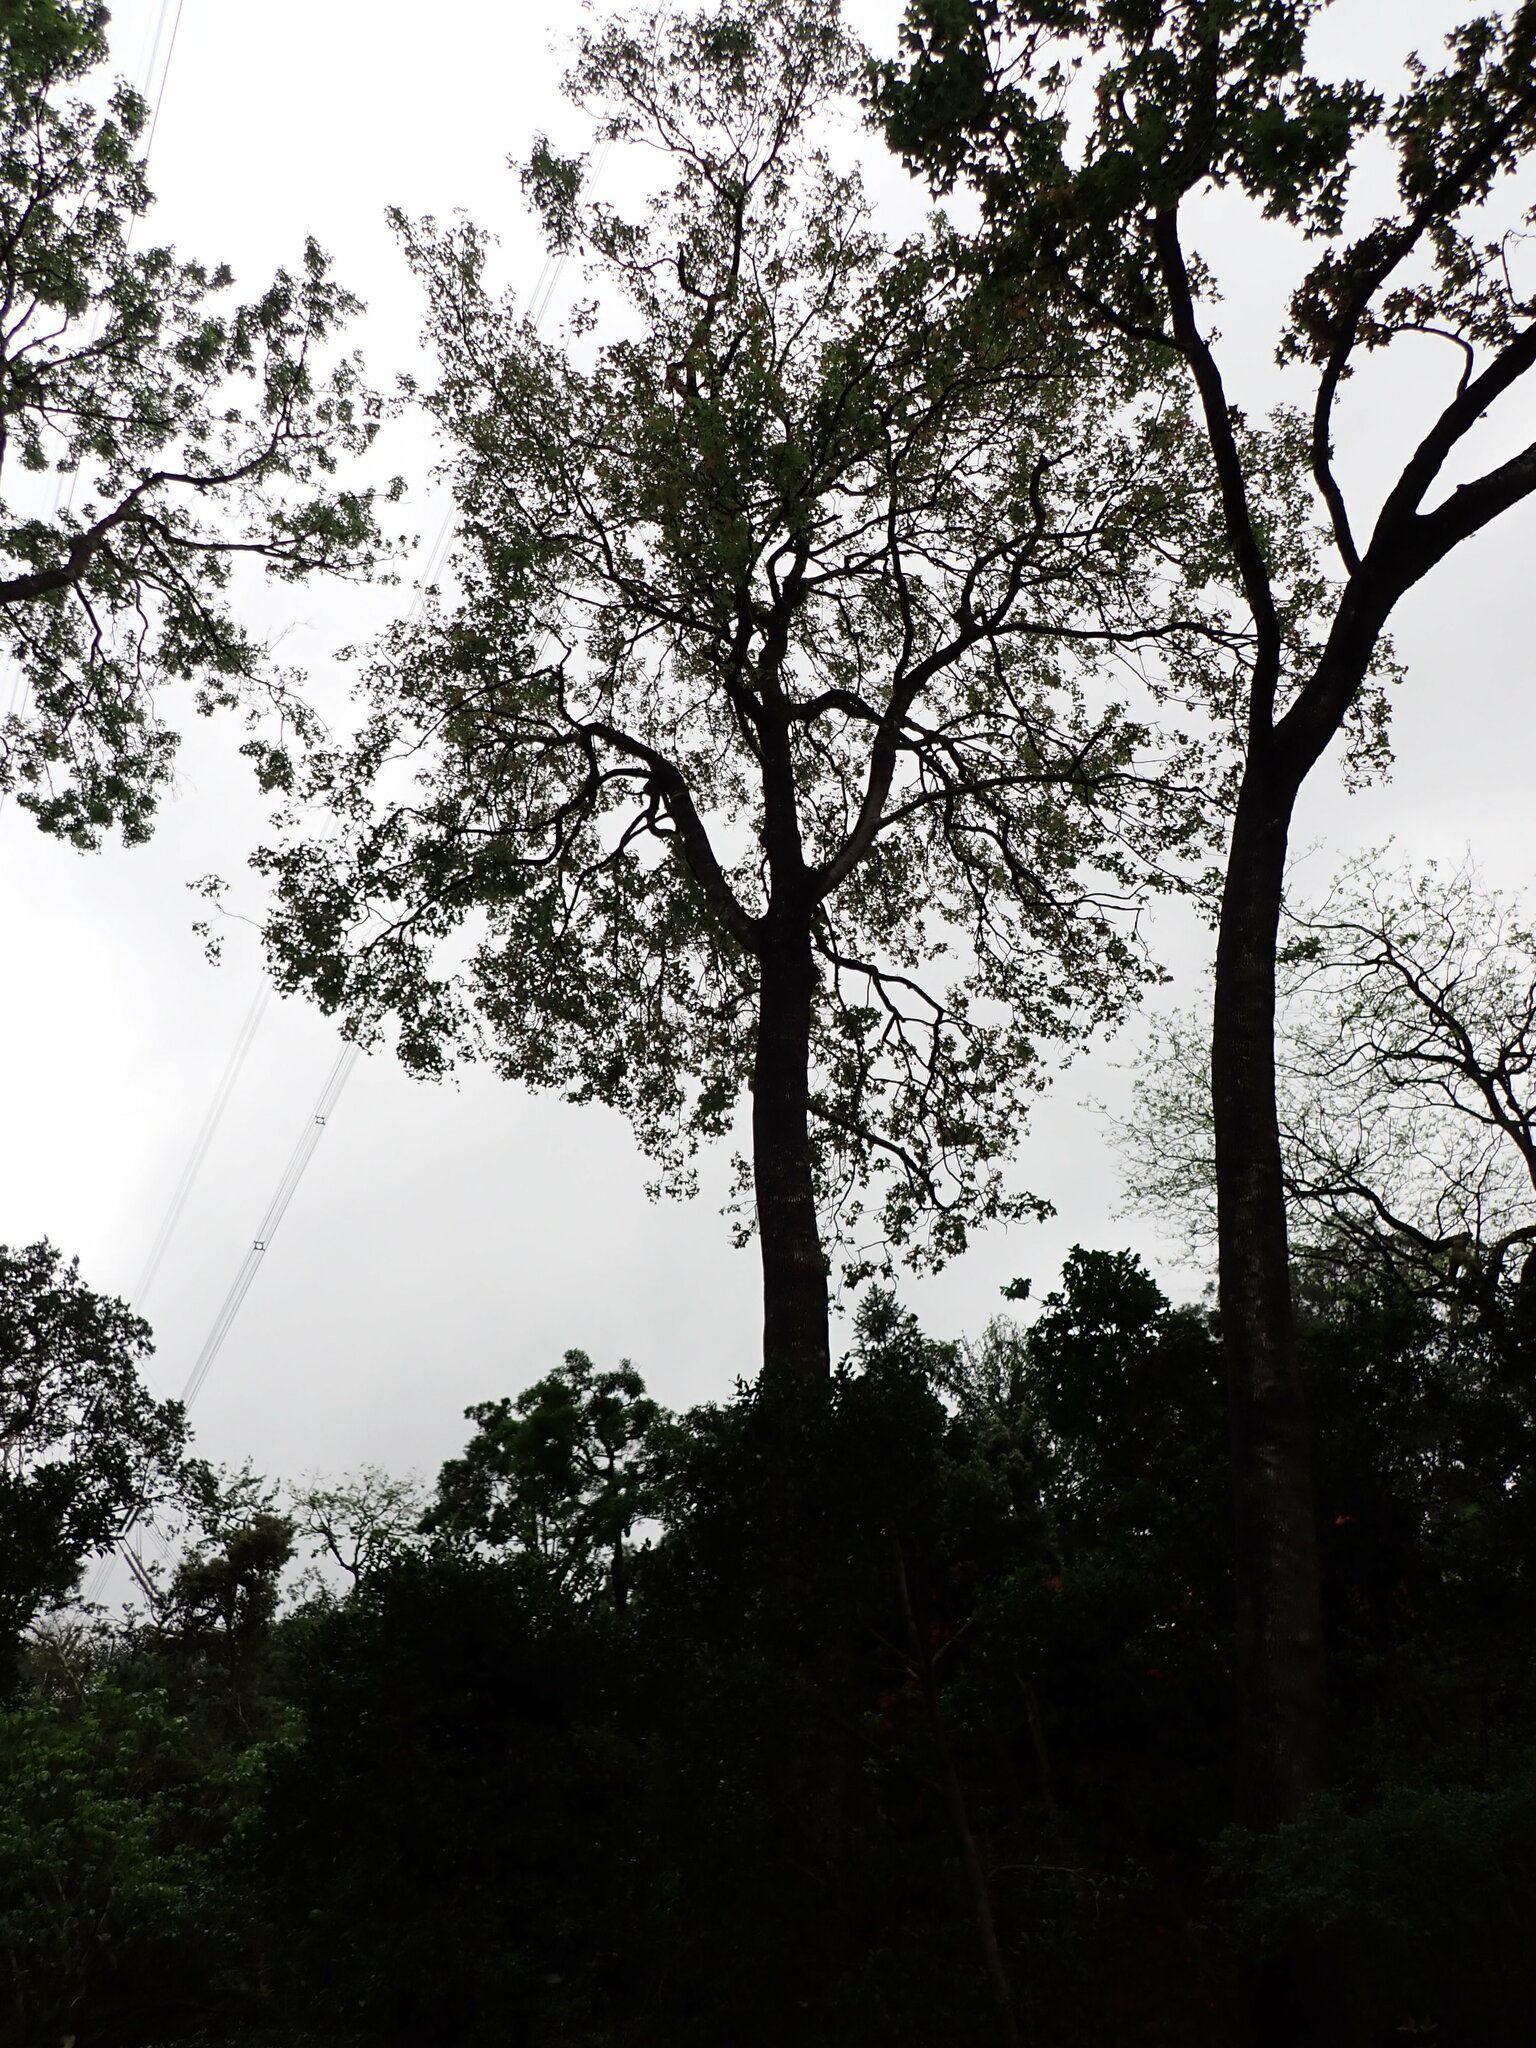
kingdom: Plantae
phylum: Tracheophyta
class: Magnoliopsida
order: Saxifragales
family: Altingiaceae
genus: Liquidambar
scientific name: Liquidambar formosana
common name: Chinese sweet gum
